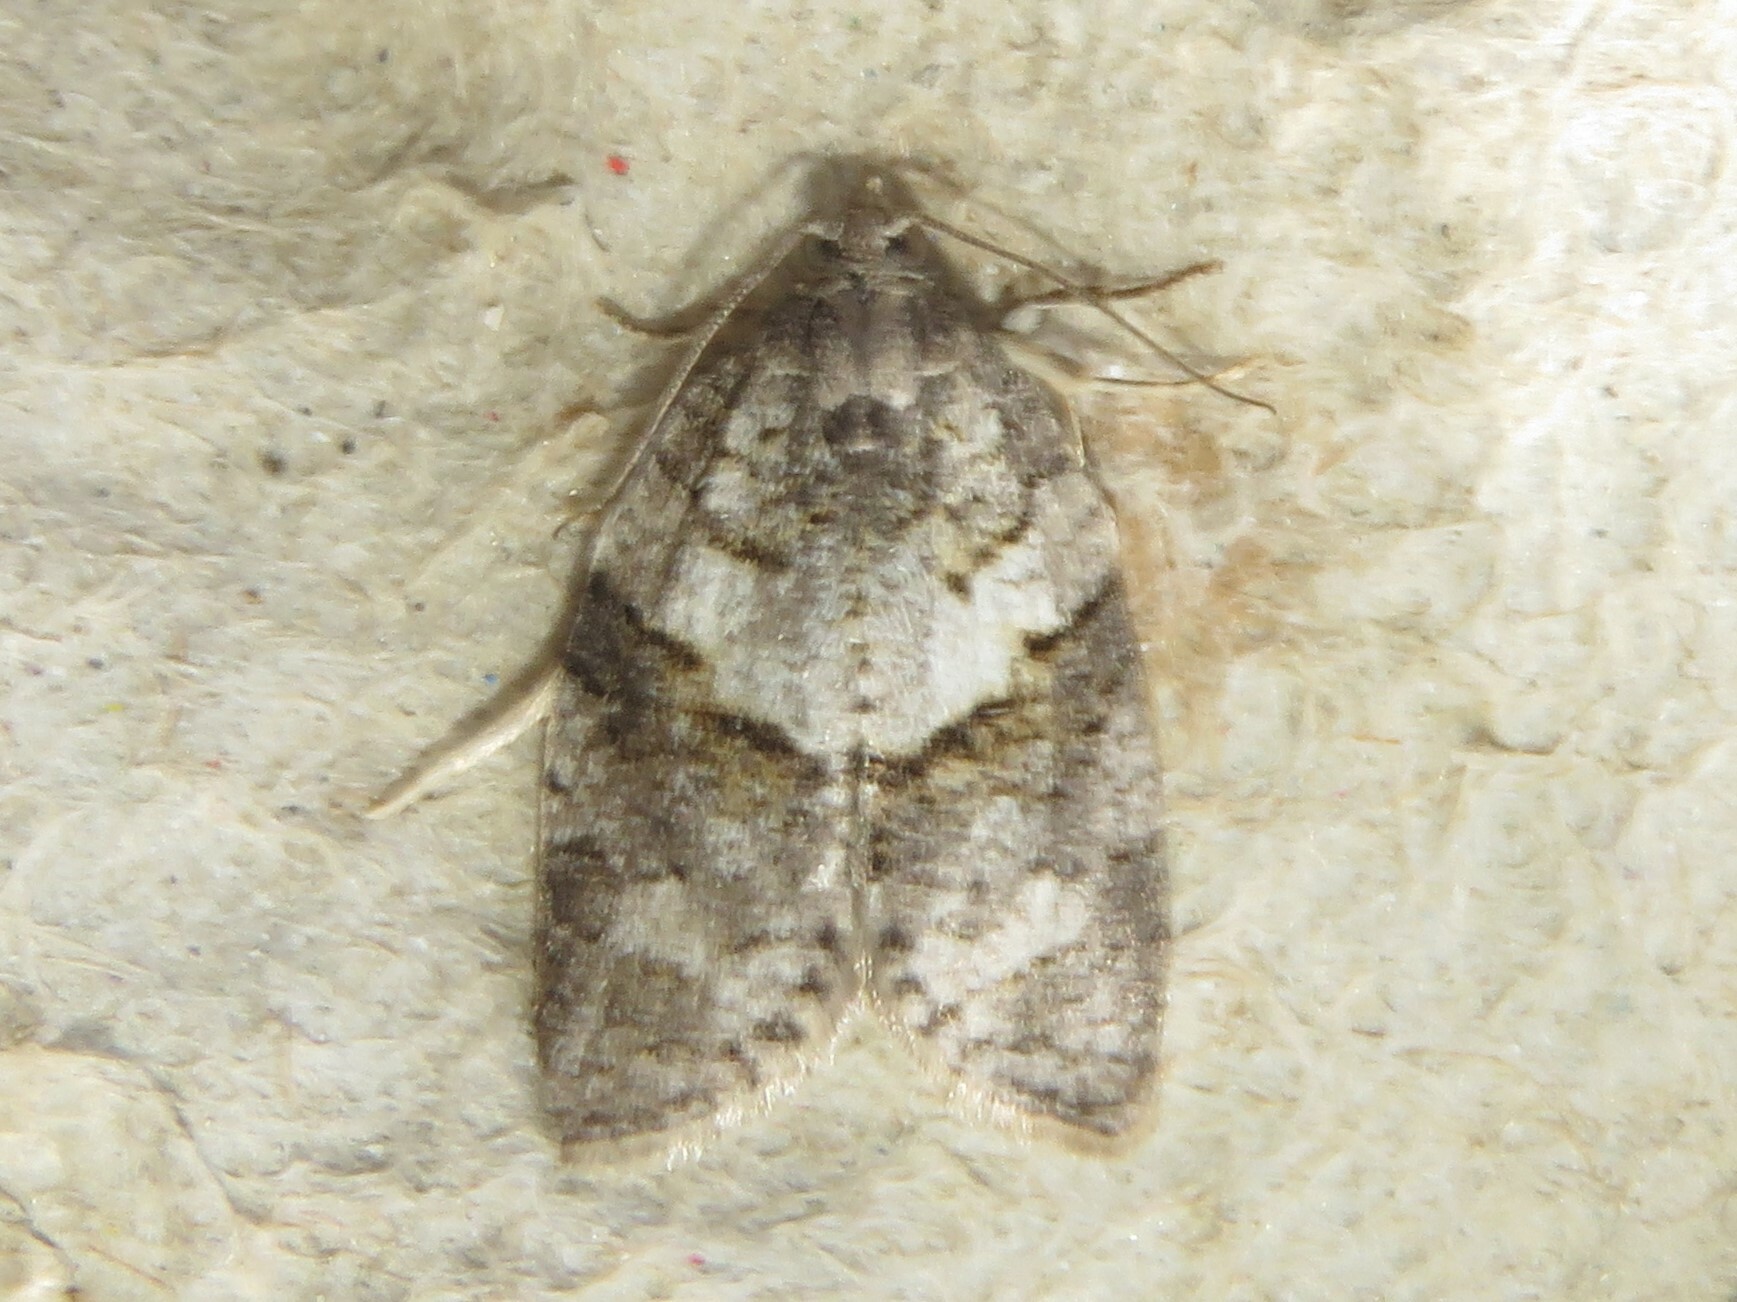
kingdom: Animalia
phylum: Arthropoda
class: Insecta
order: Lepidoptera
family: Tortricidae
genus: Syndemis
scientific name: Syndemis afflictana
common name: Gray leafroller moth
